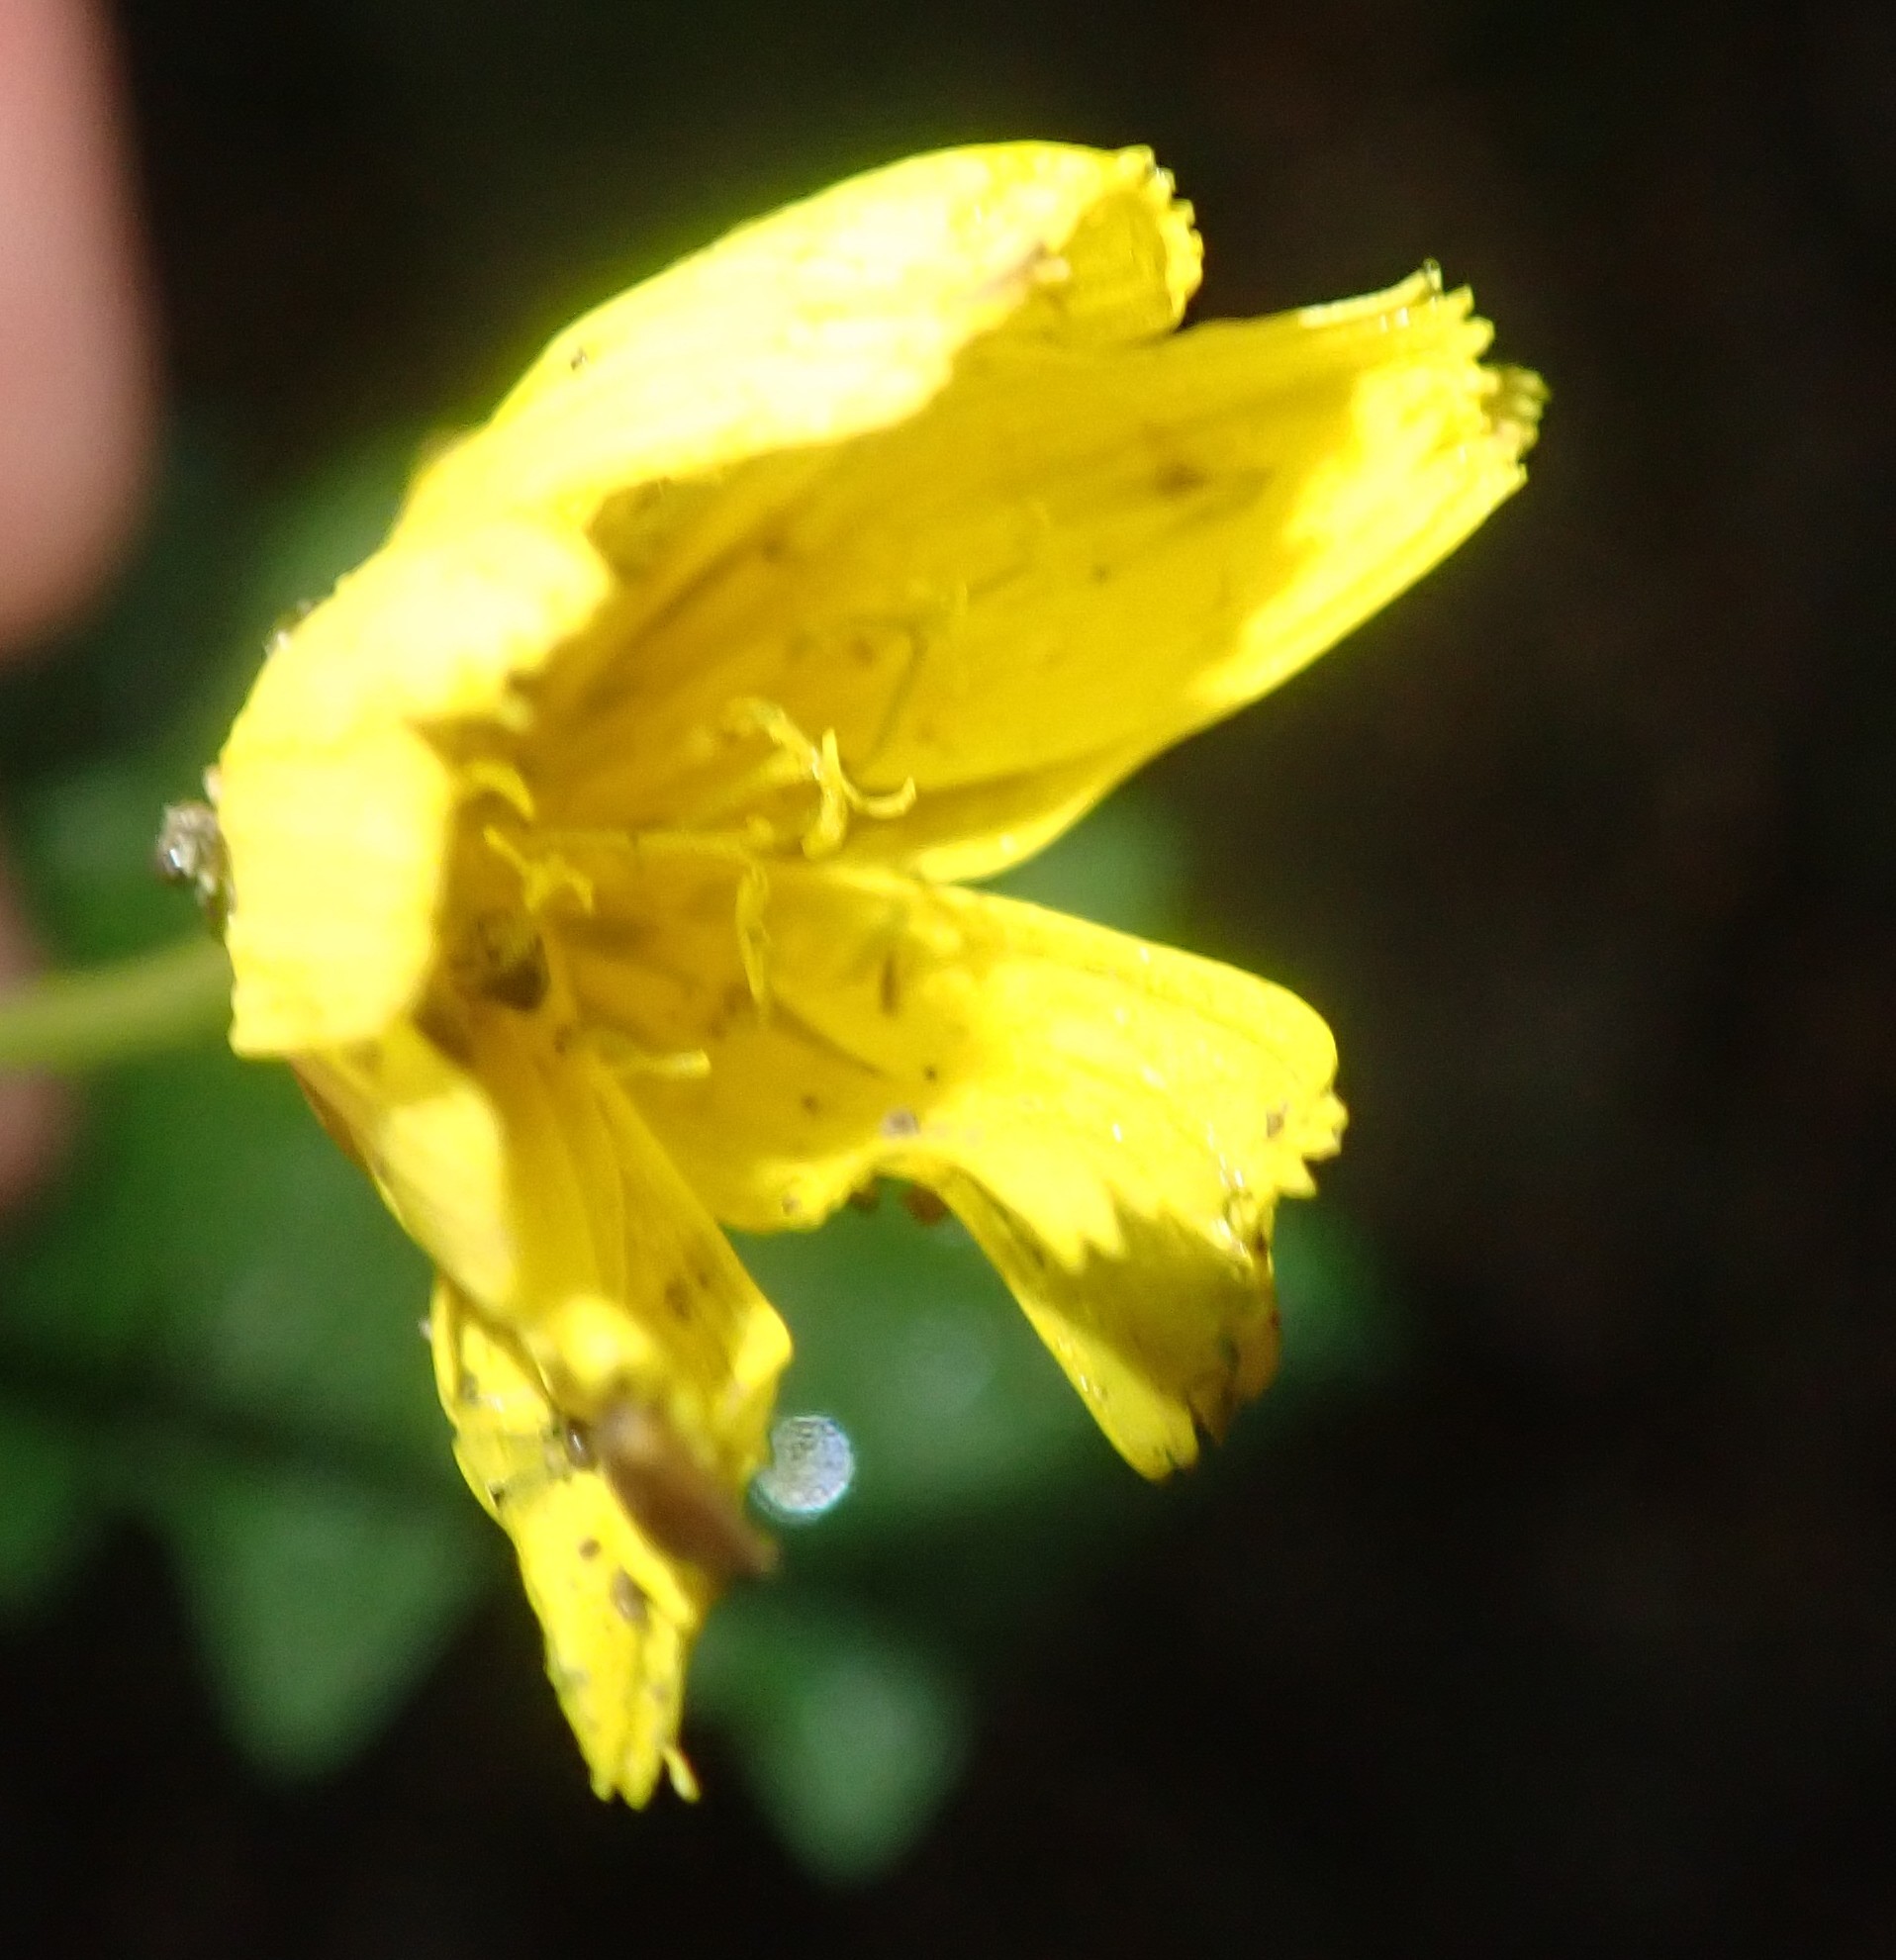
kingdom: Plantae
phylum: Tracheophyta
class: Magnoliopsida
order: Asterales
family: Asteraceae
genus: Aposeris
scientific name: Aposeris foetida
